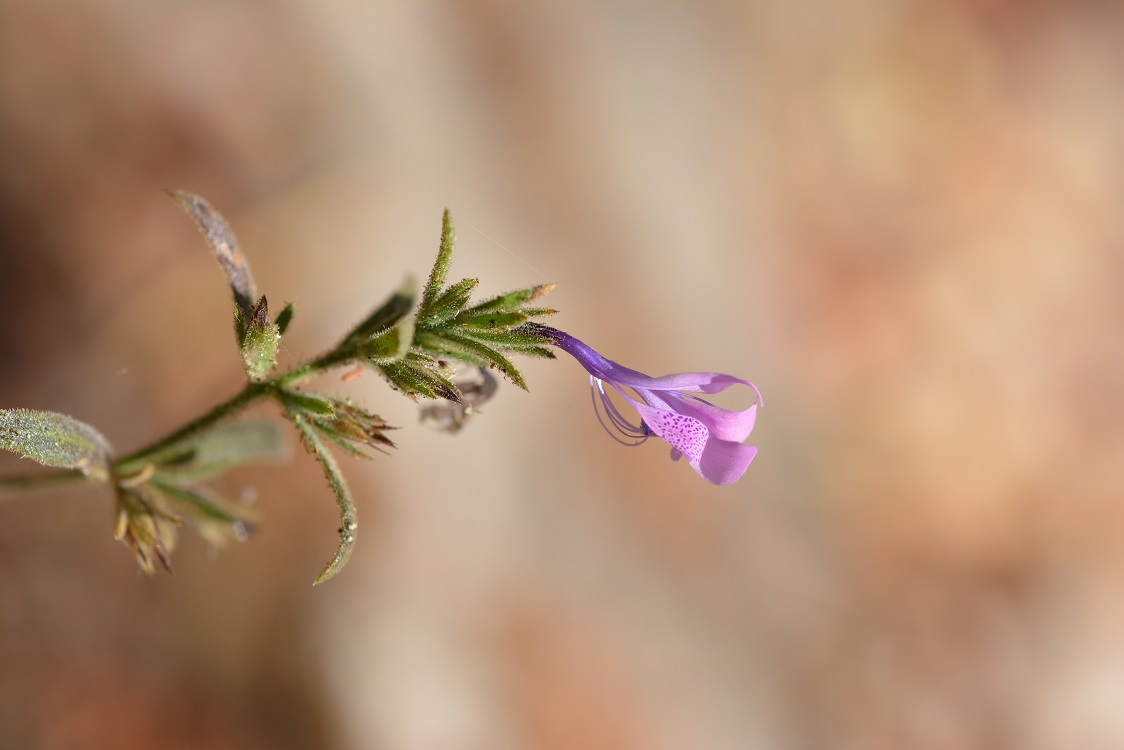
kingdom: Plantae
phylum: Tracheophyta
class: Magnoliopsida
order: Ericales
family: Polemoniaceae
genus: Loeselia
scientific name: Loeselia glandulosa
